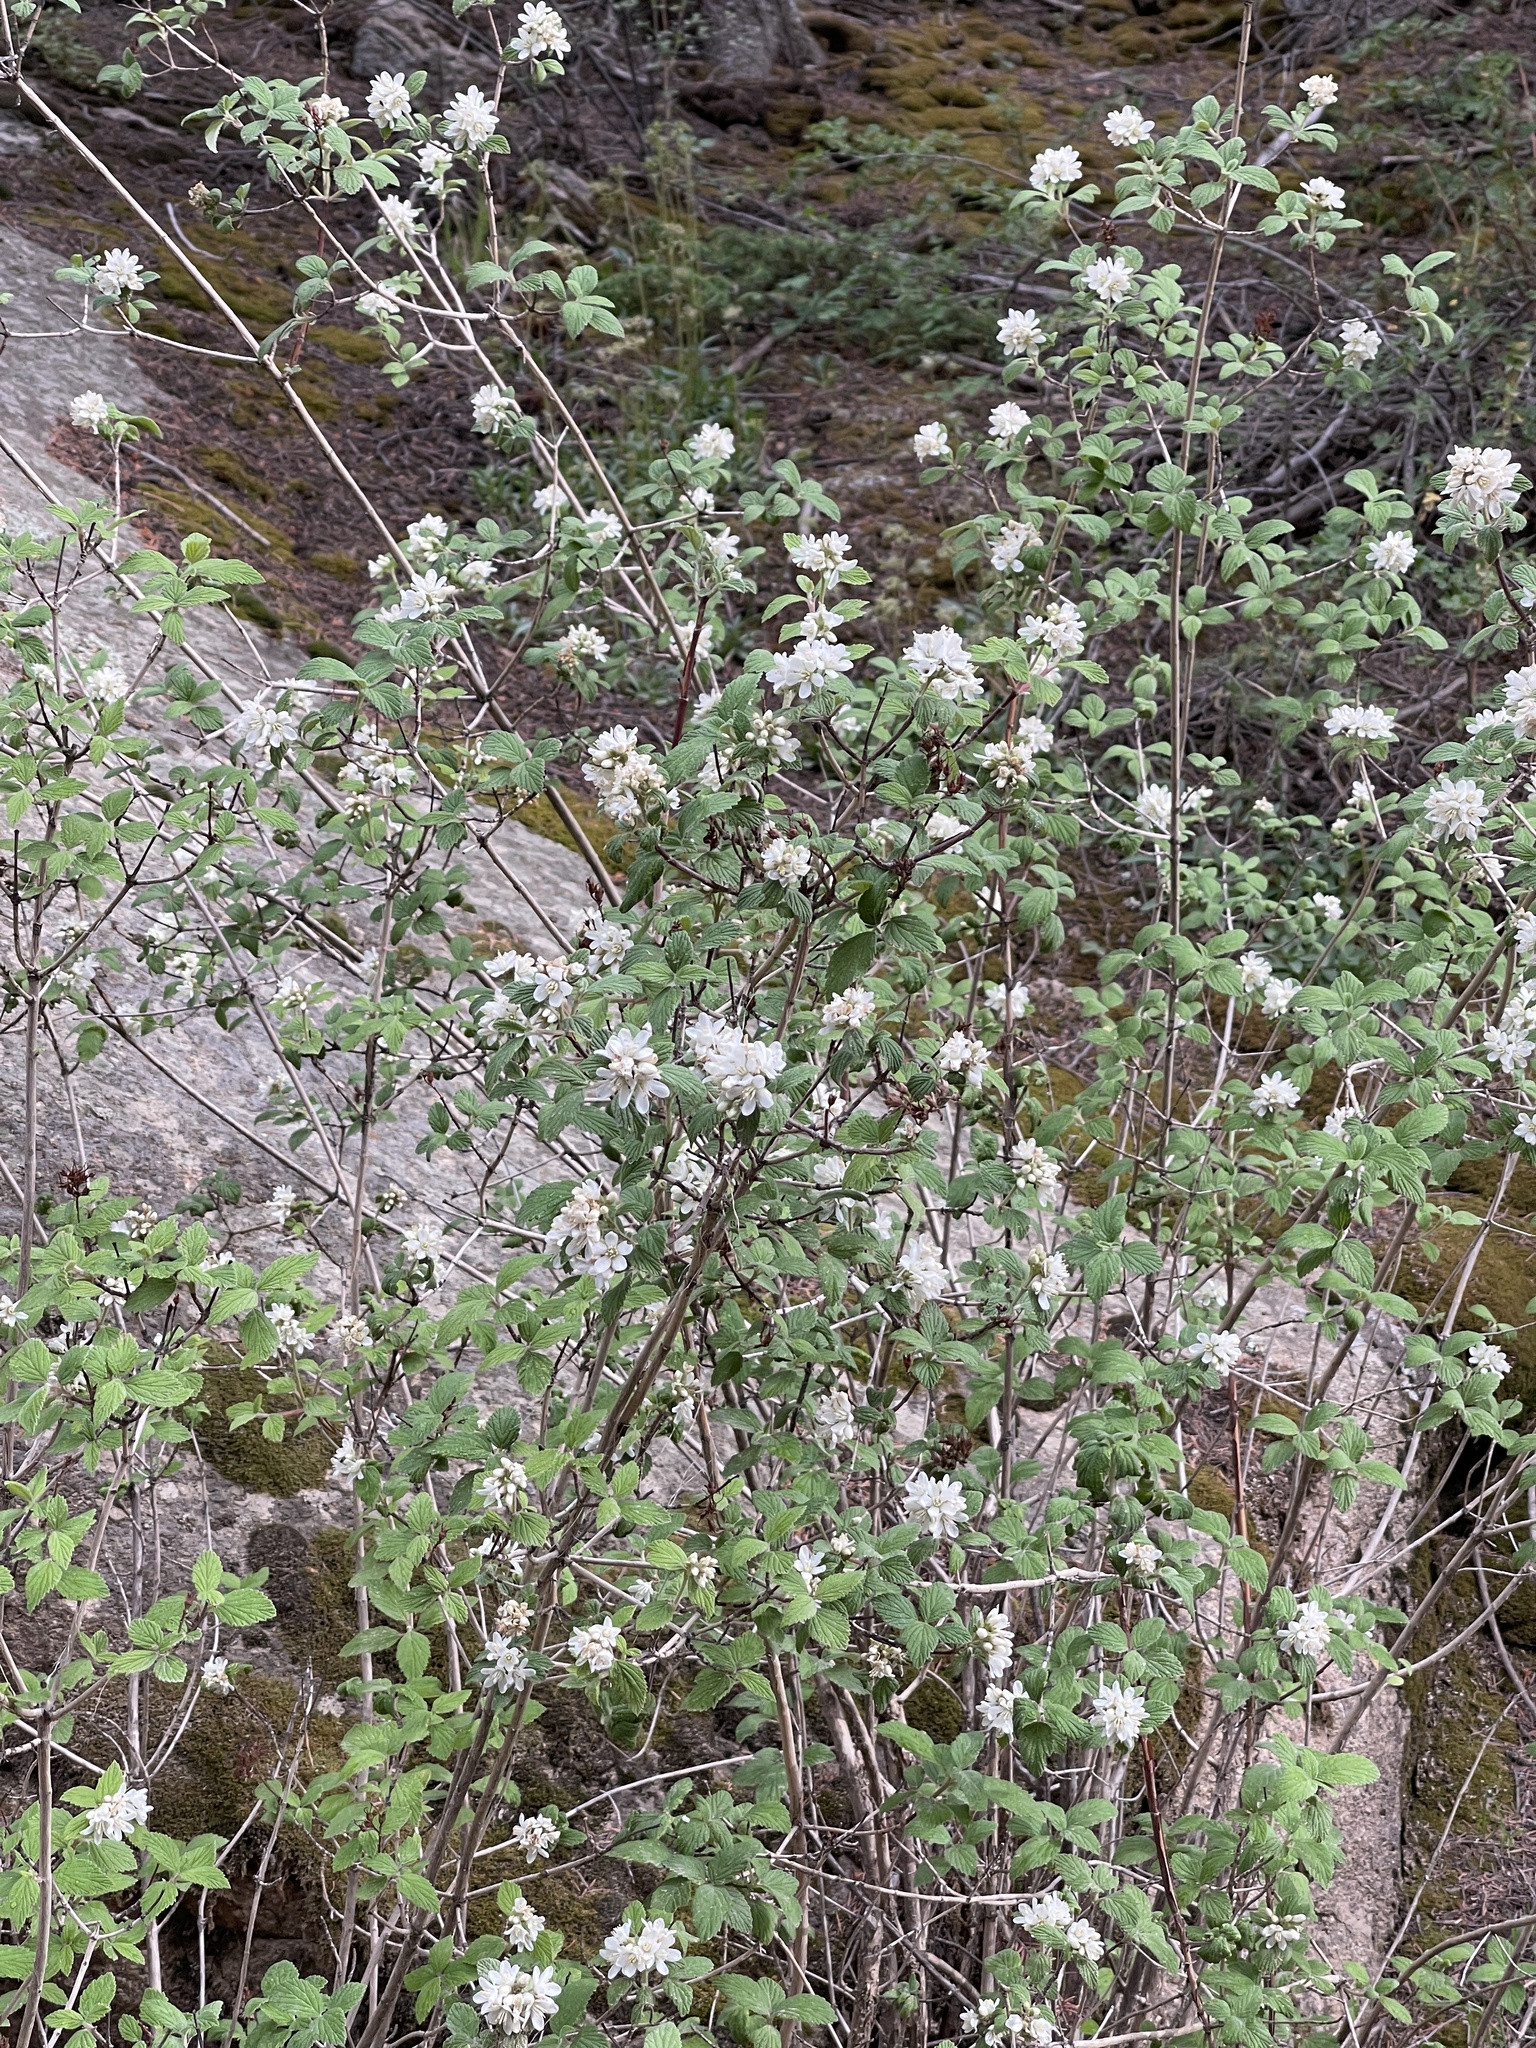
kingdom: Plantae
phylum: Tracheophyta
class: Magnoliopsida
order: Cornales
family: Hydrangeaceae
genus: Jamesia
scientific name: Jamesia americana
